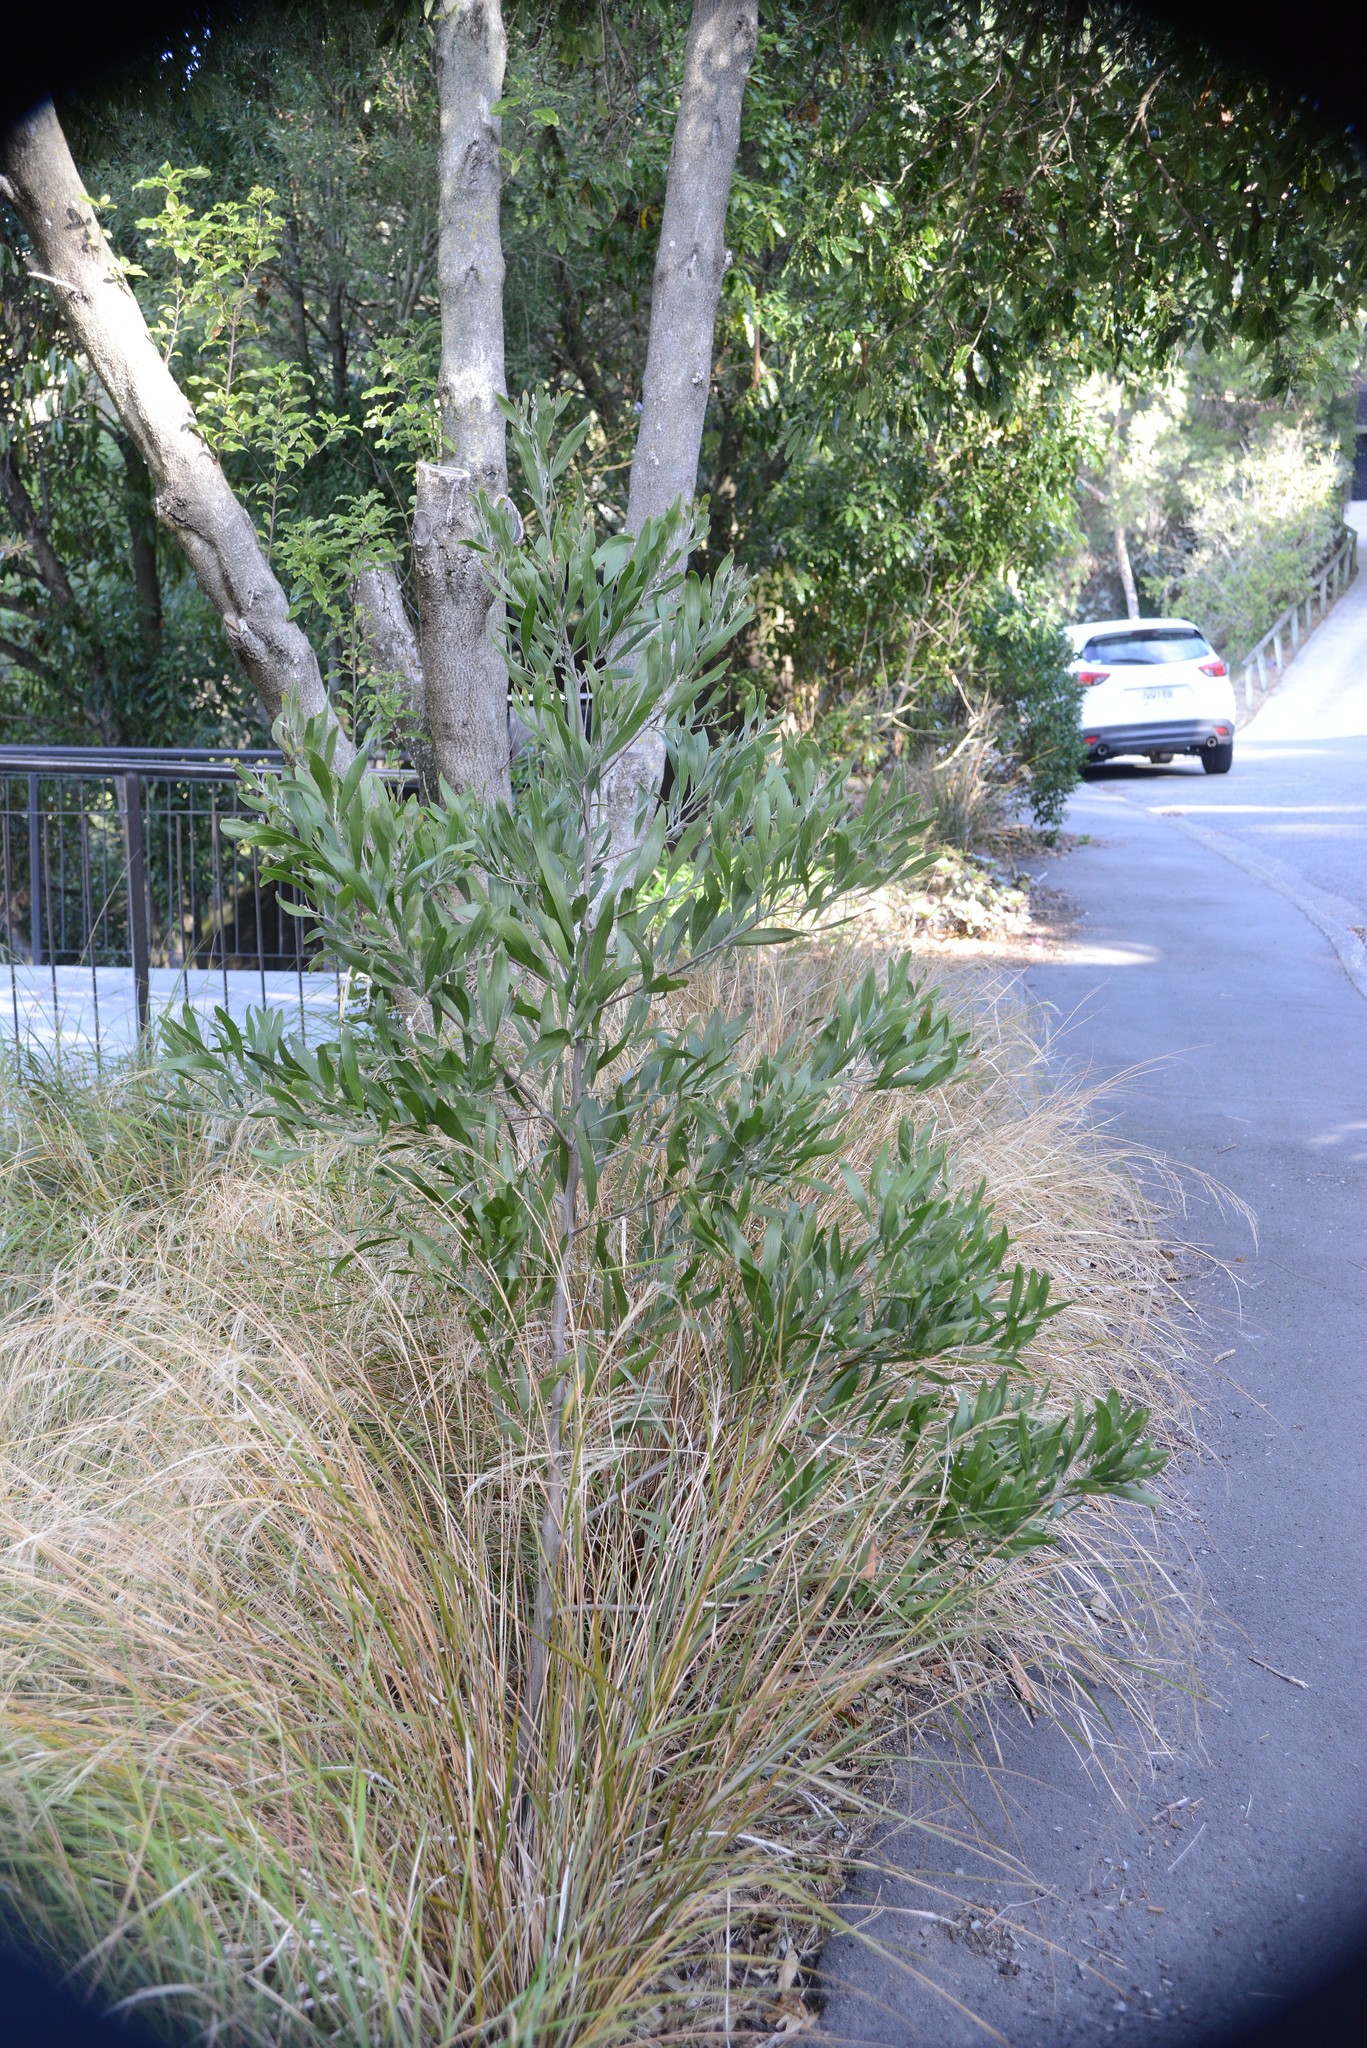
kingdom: Plantae
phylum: Tracheophyta
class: Magnoliopsida
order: Fabales
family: Fabaceae
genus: Acacia
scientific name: Acacia melanoxylon
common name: Blackwood
